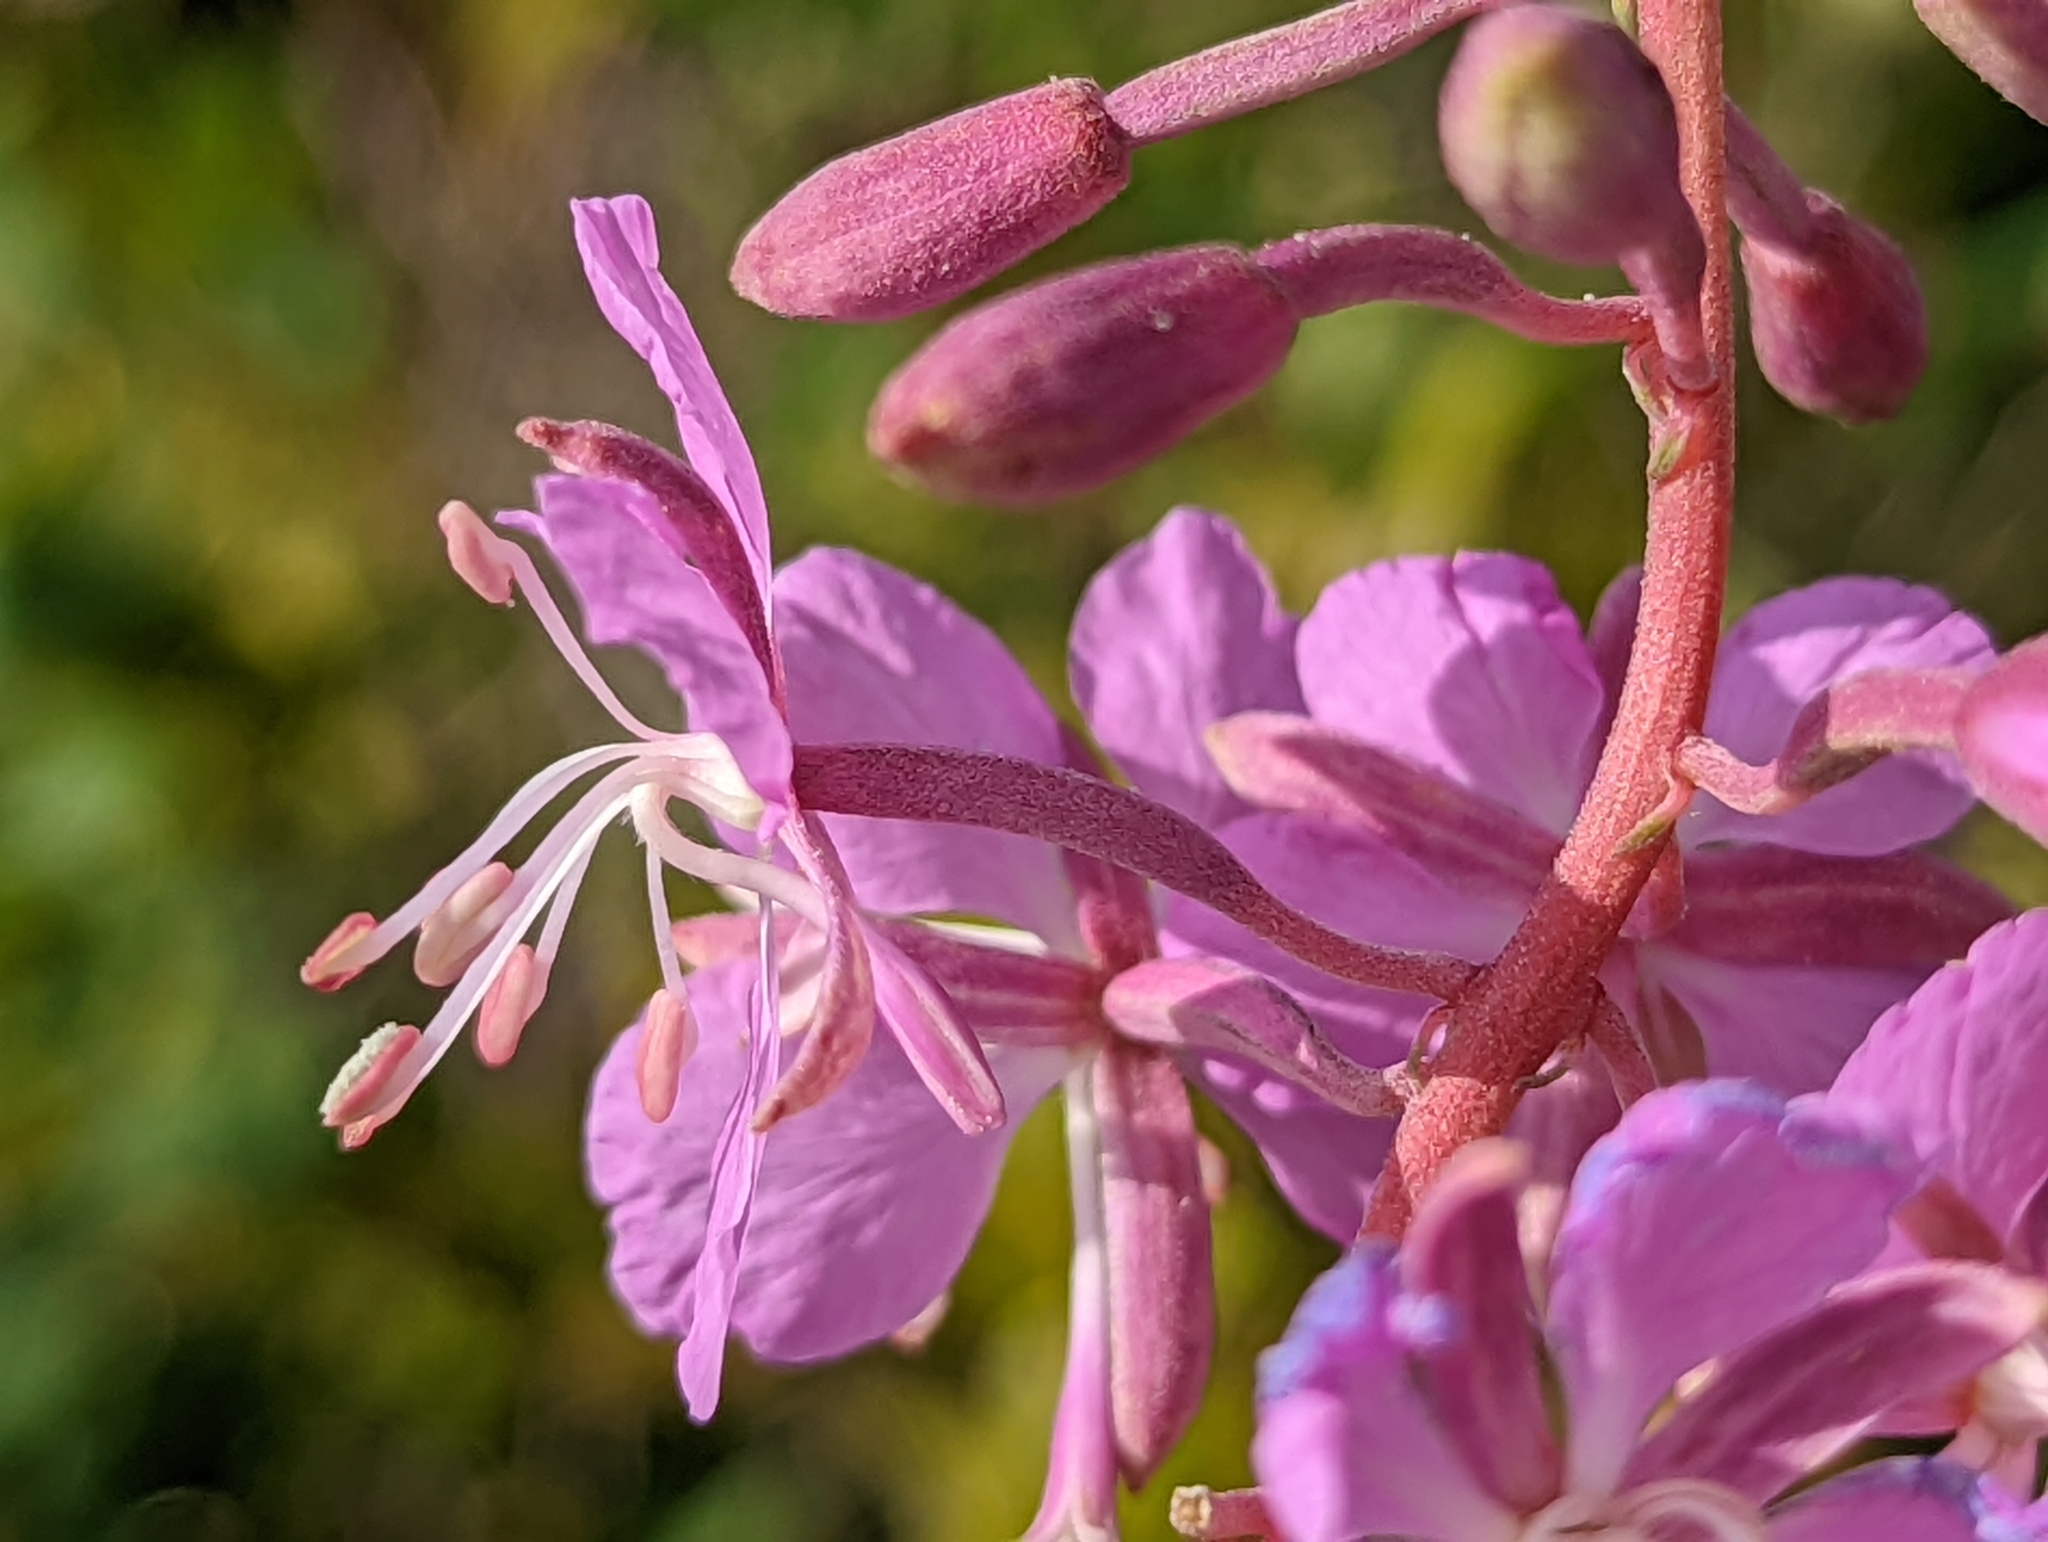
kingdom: Plantae
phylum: Tracheophyta
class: Magnoliopsida
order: Myrtales
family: Onagraceae
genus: Chamaenerion
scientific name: Chamaenerion angustifolium
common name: Fireweed
